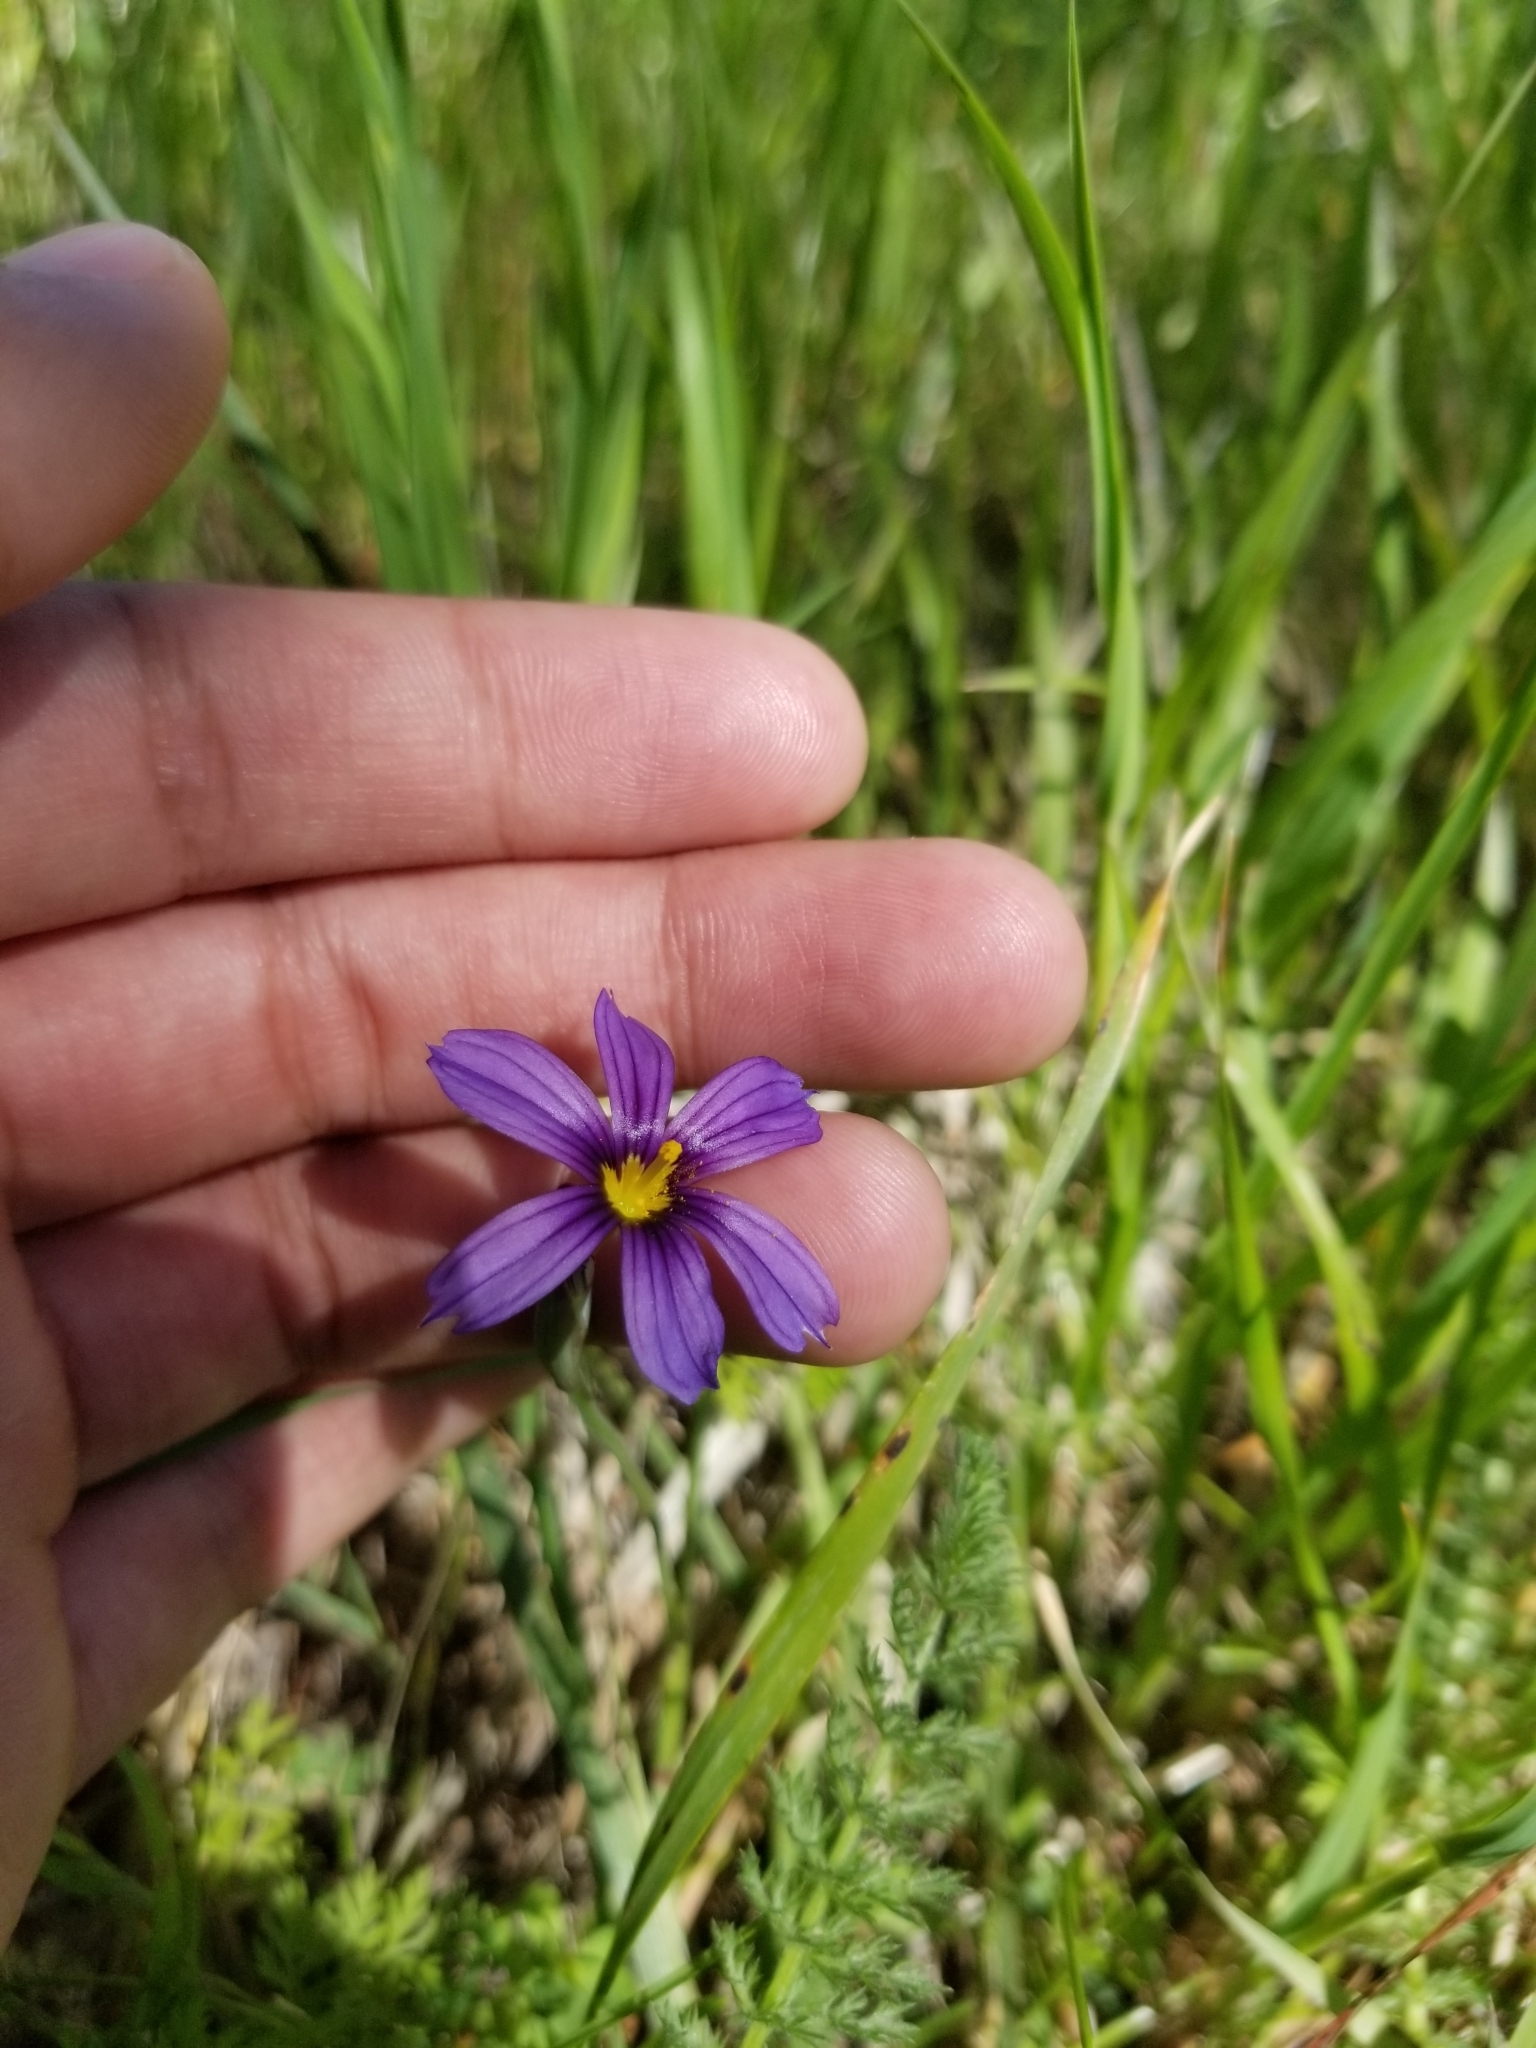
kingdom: Plantae
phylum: Tracheophyta
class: Liliopsida
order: Asparagales
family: Iridaceae
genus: Sisyrinchium
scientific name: Sisyrinchium bellum
